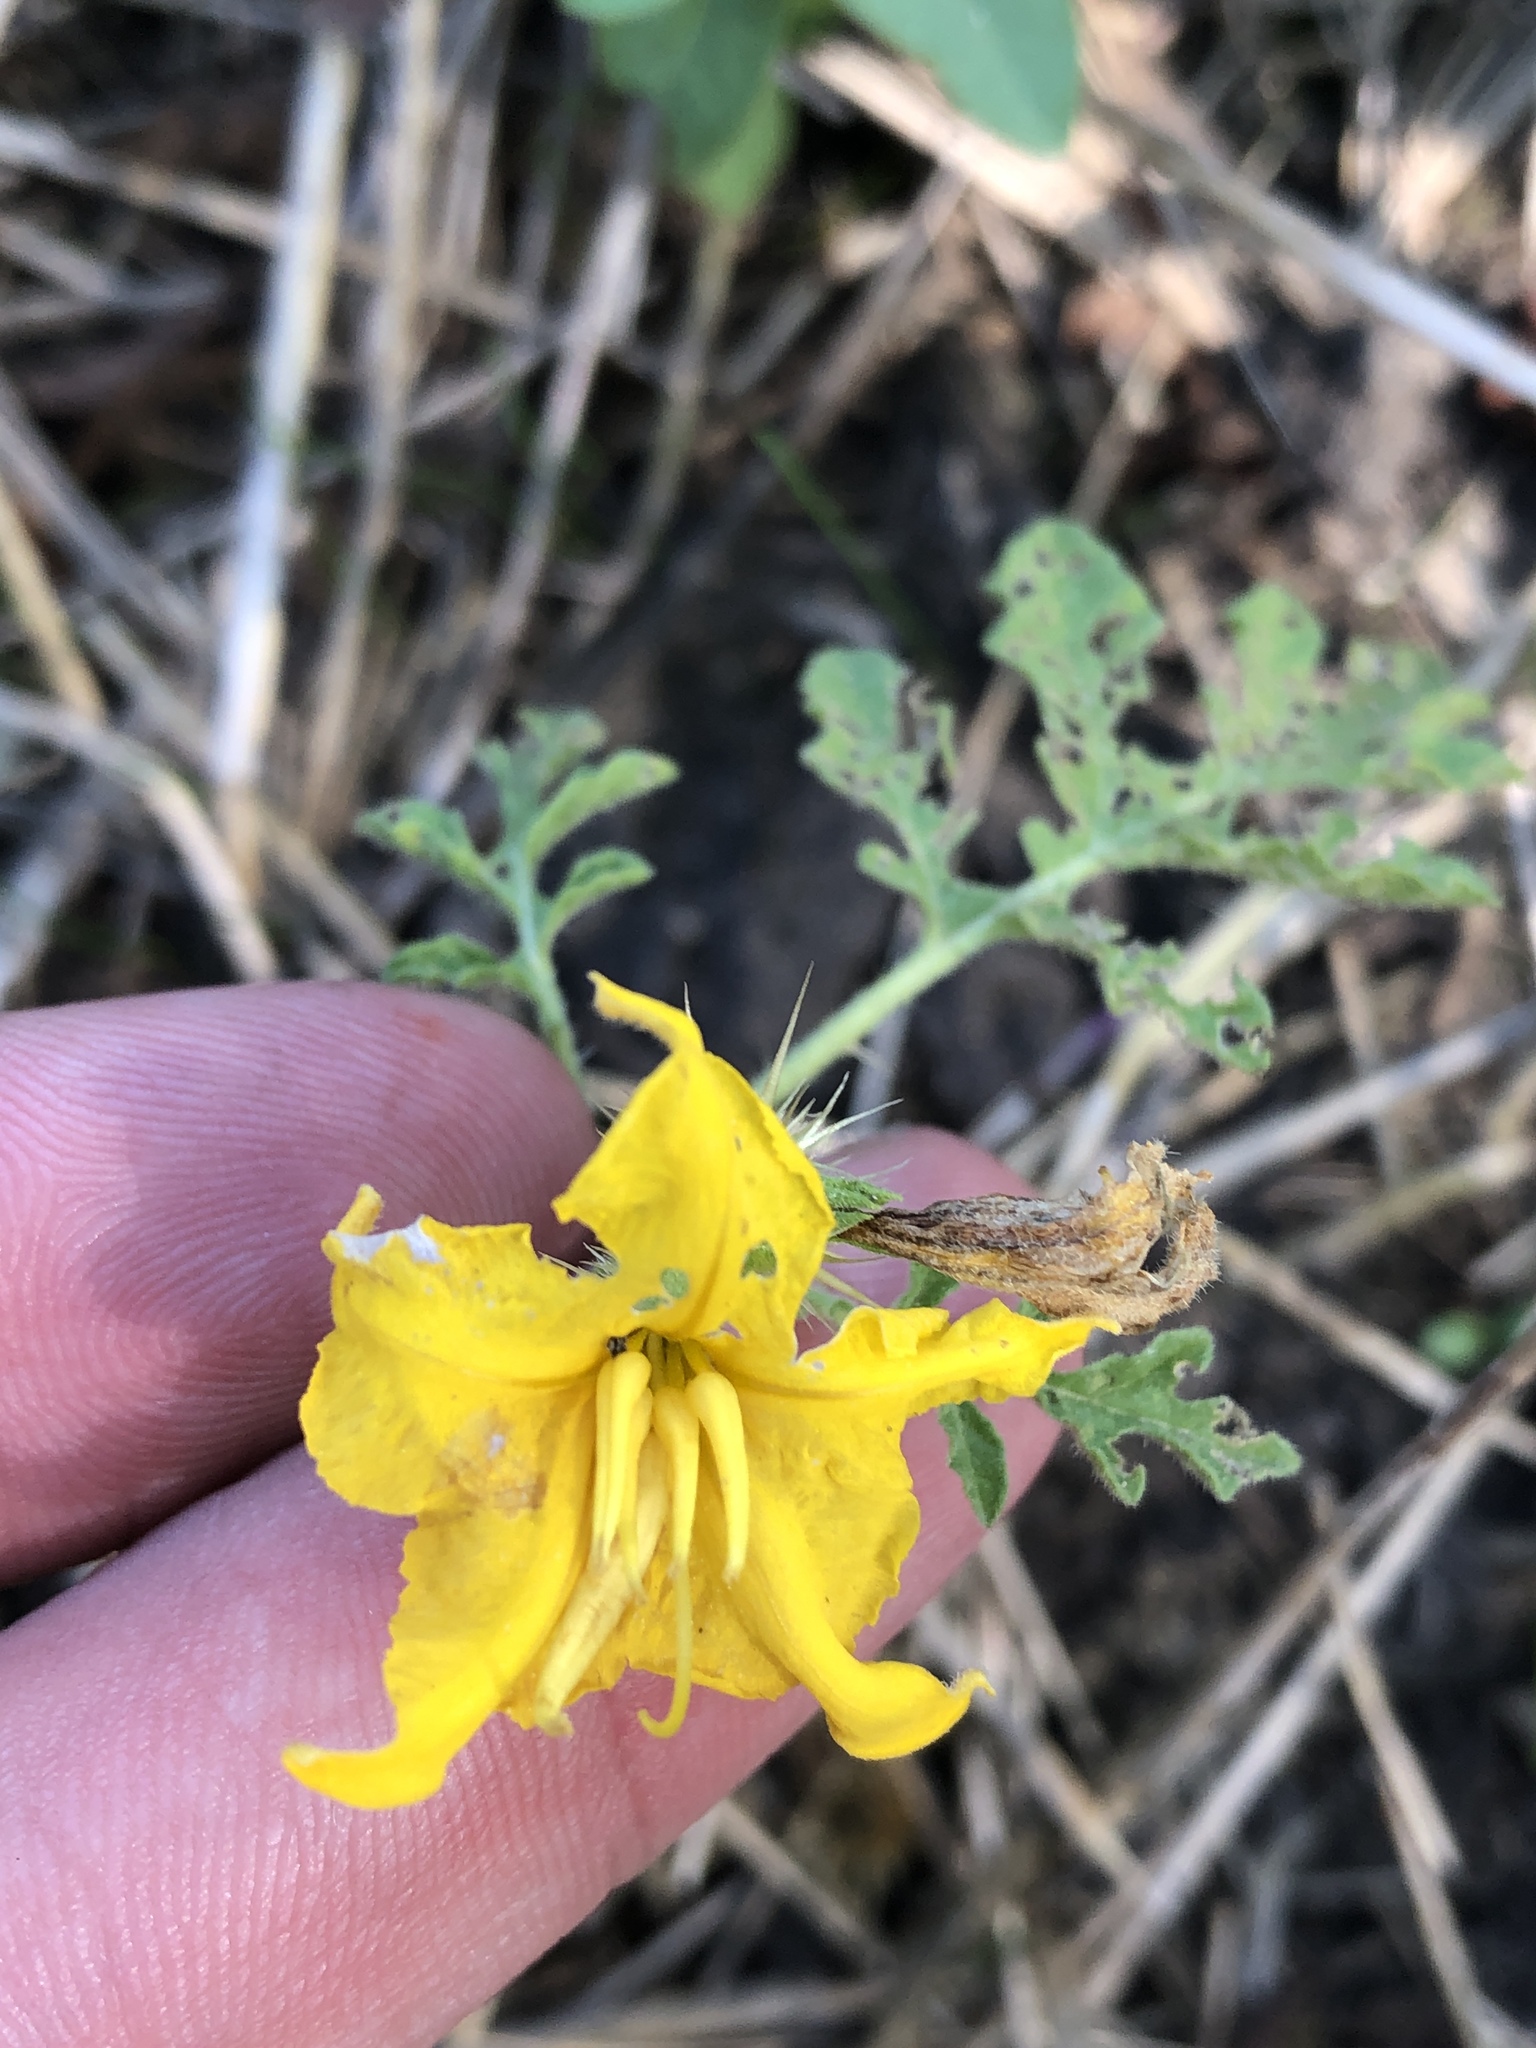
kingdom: Plantae
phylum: Tracheophyta
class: Magnoliopsida
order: Solanales
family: Solanaceae
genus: Solanum
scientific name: Solanum angustifolium
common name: Buffalobur nightshade
